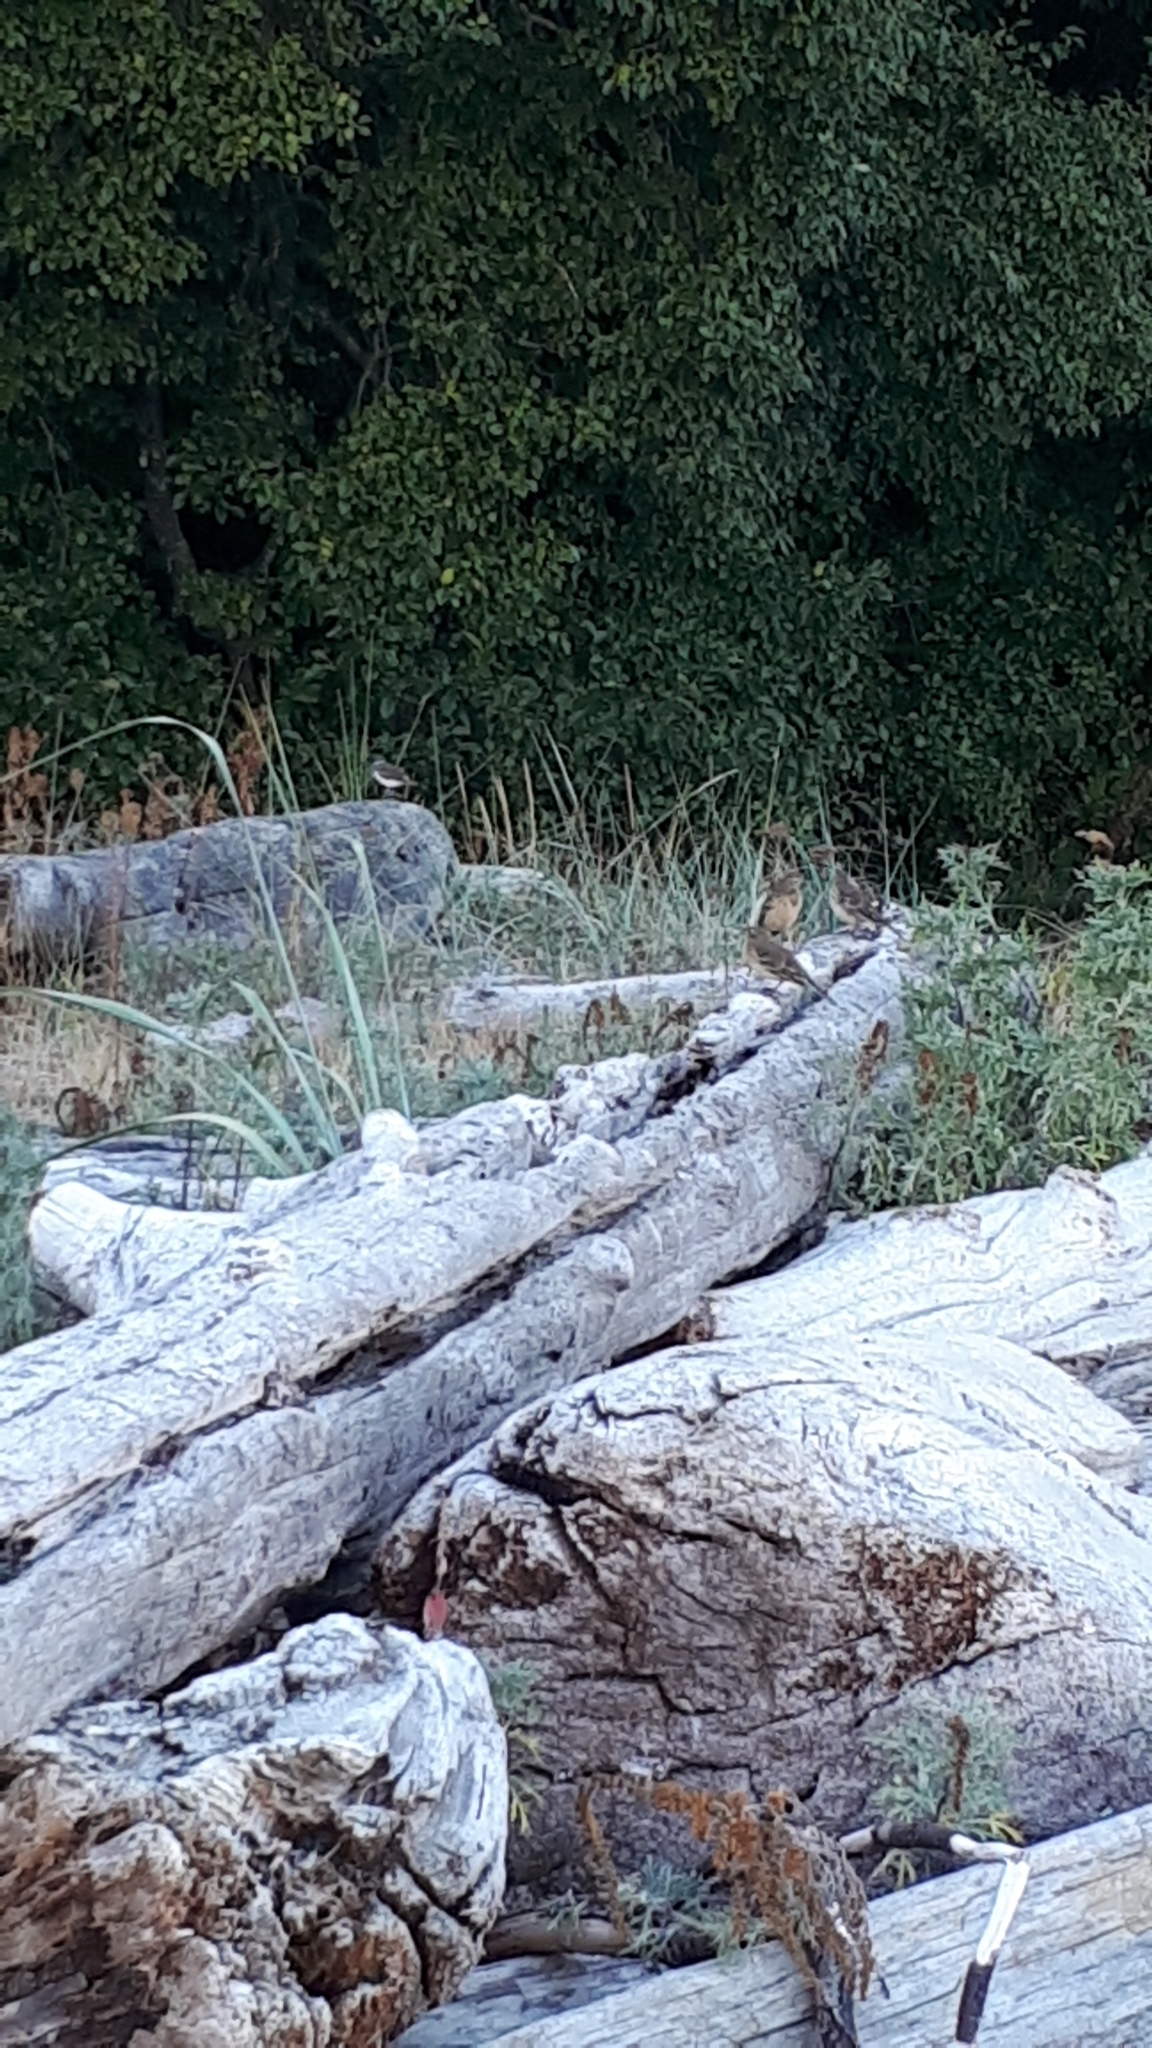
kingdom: Animalia
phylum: Chordata
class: Aves
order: Passeriformes
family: Motacillidae
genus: Anthus
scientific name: Anthus rubescens
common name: Buff-bellied pipit
